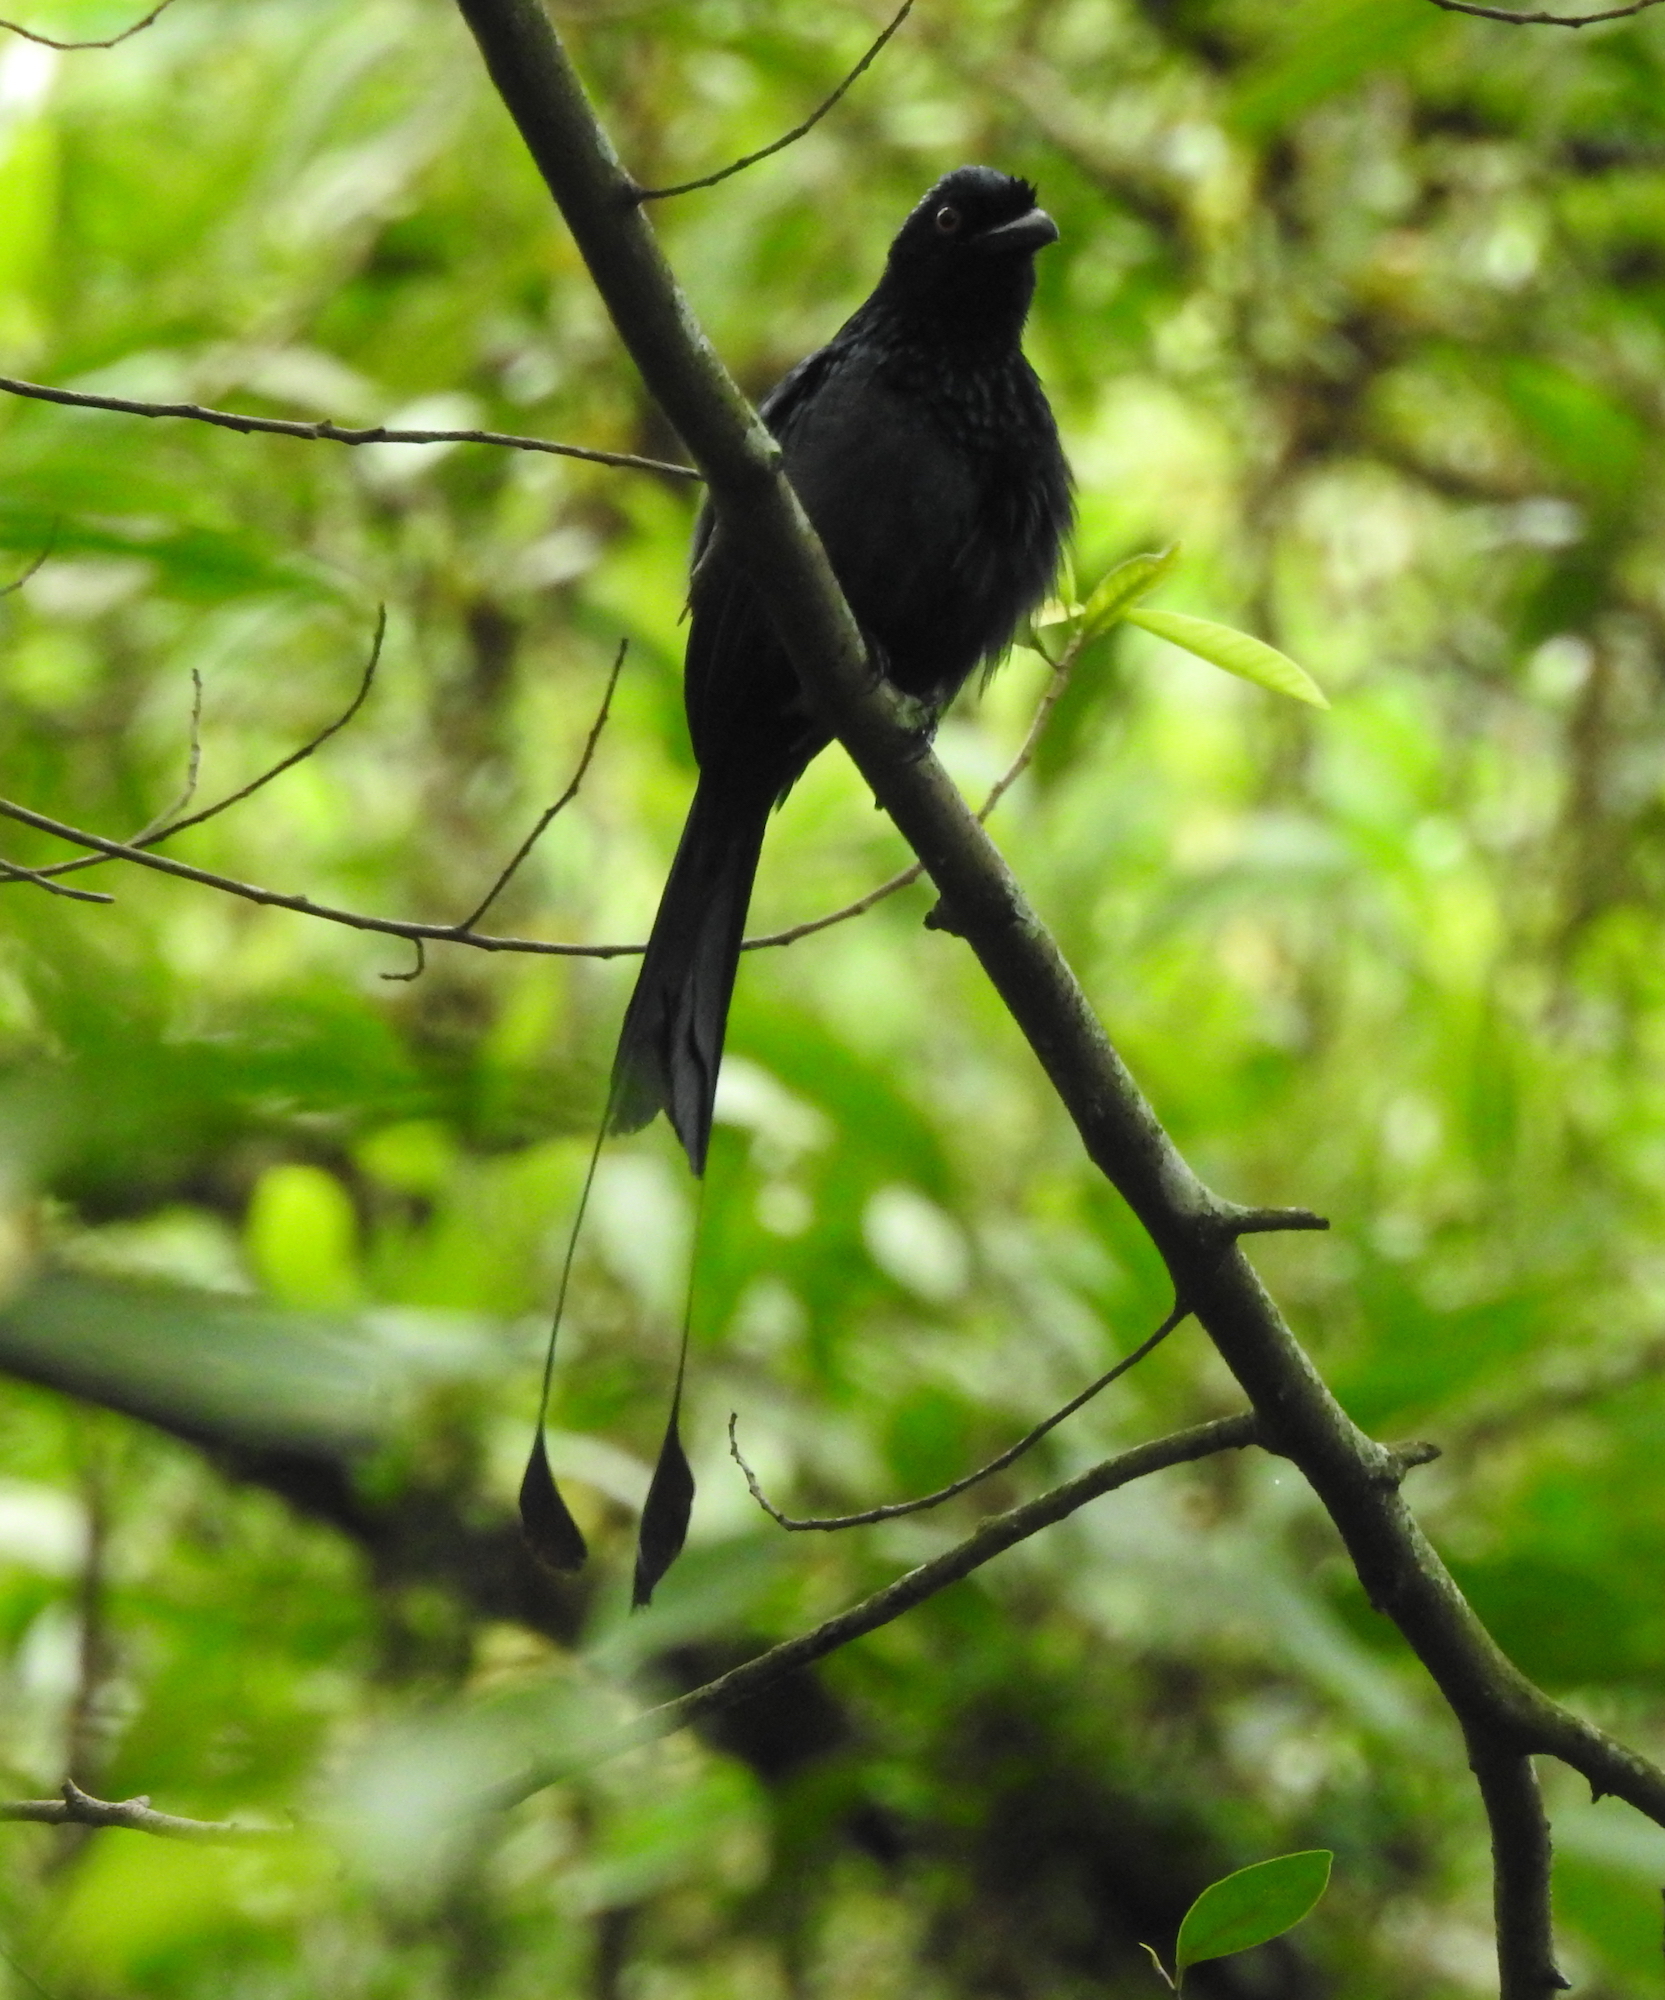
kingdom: Animalia
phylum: Chordata
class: Aves
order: Passeriformes
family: Dicruridae
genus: Dicrurus
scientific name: Dicrurus paradiseus
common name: Greater racket-tailed drongo
